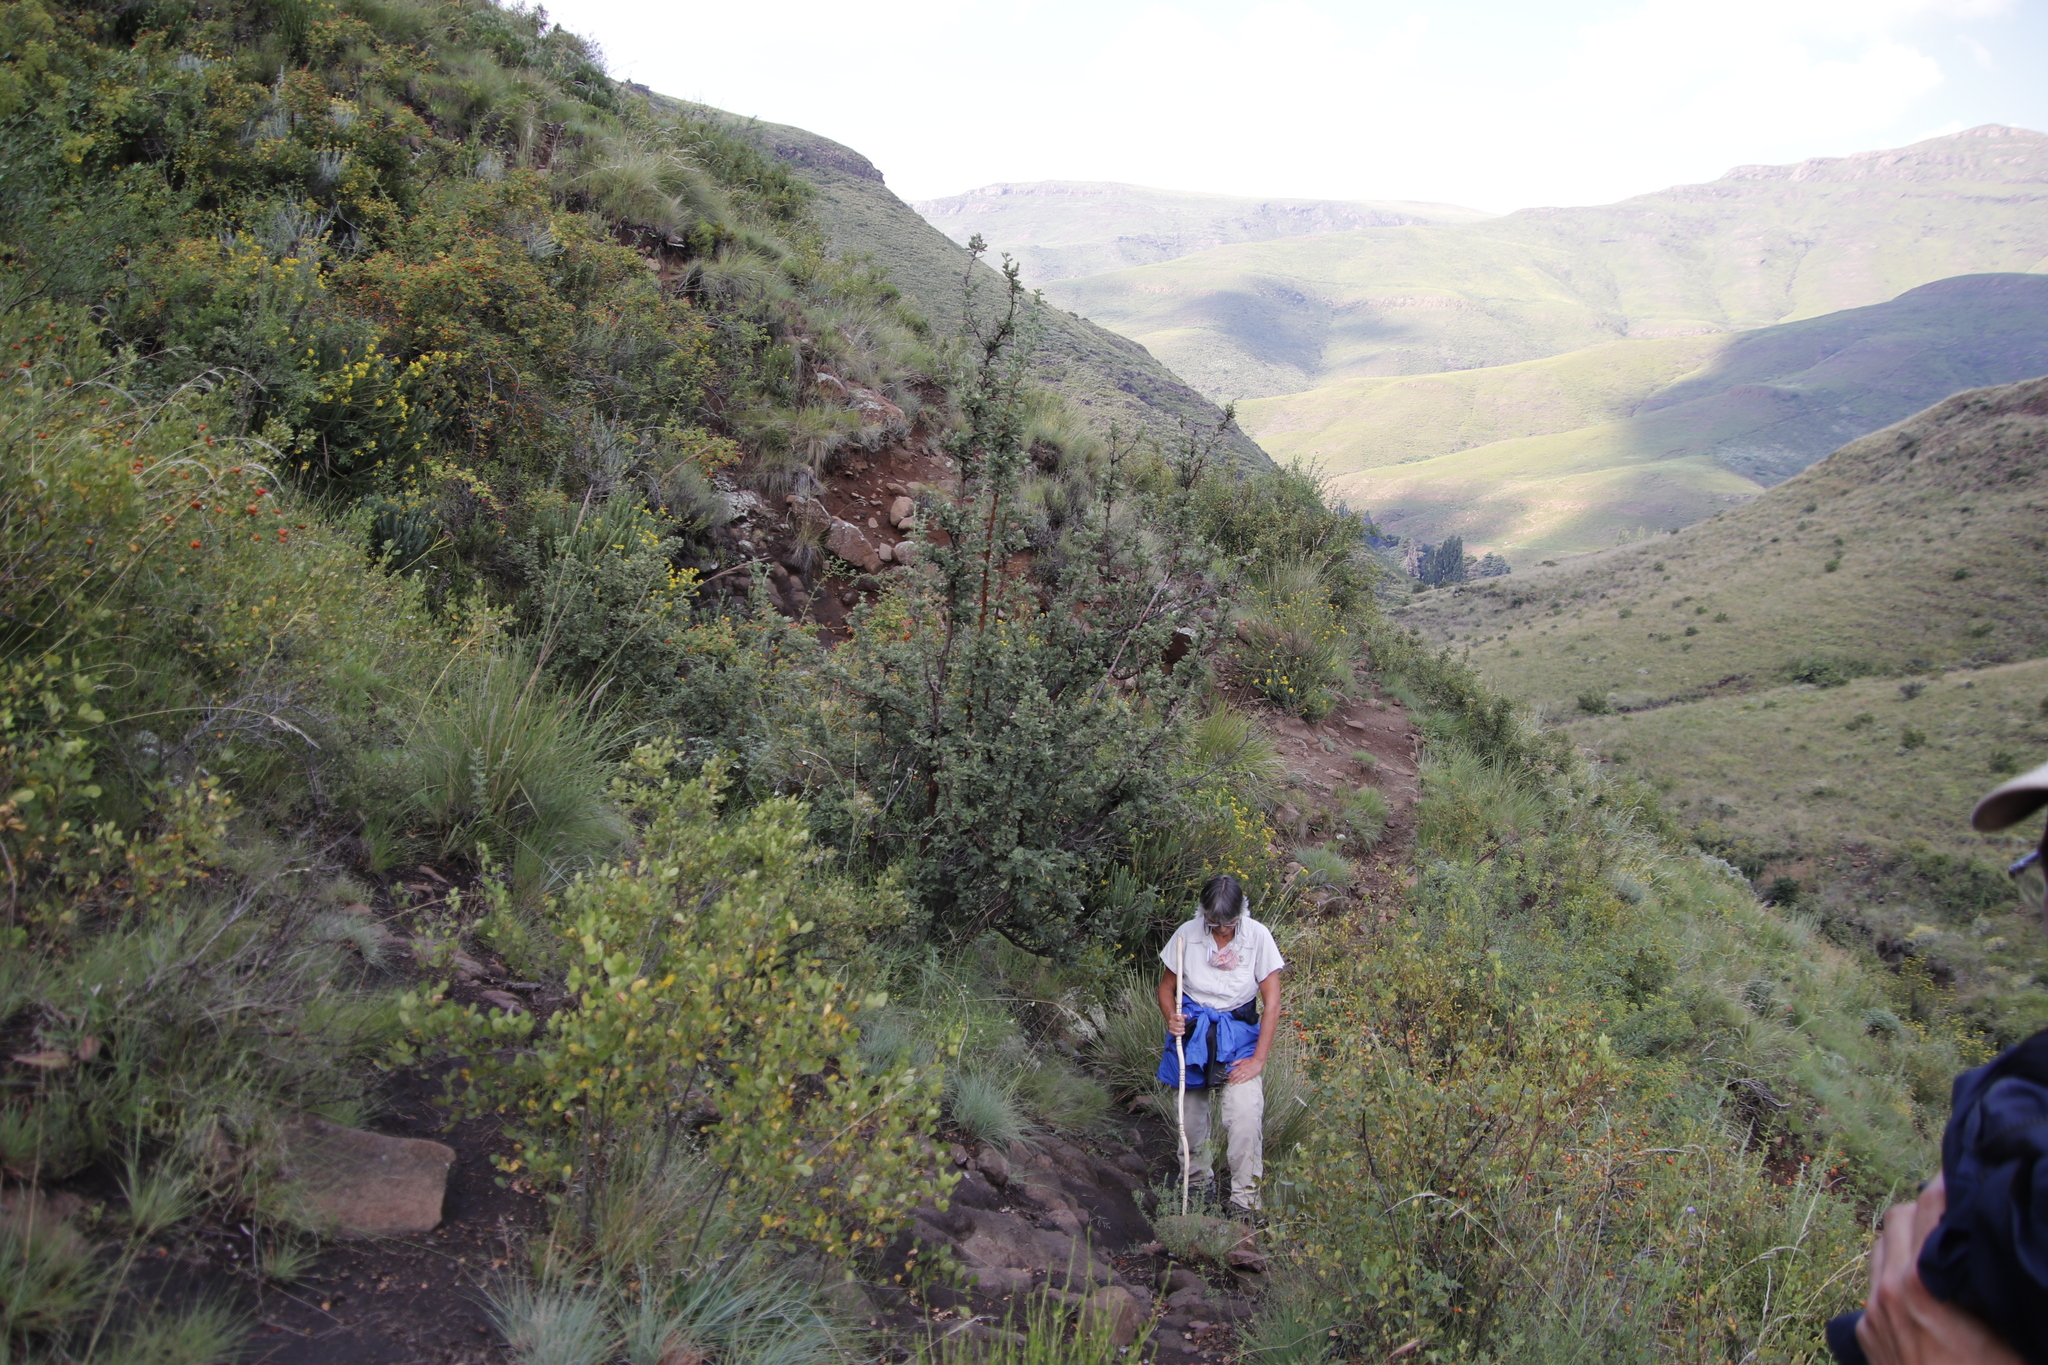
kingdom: Plantae
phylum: Tracheophyta
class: Magnoliopsida
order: Rosales
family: Rosaceae
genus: Leucosidea
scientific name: Leucosidea sericea
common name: Oldwood
